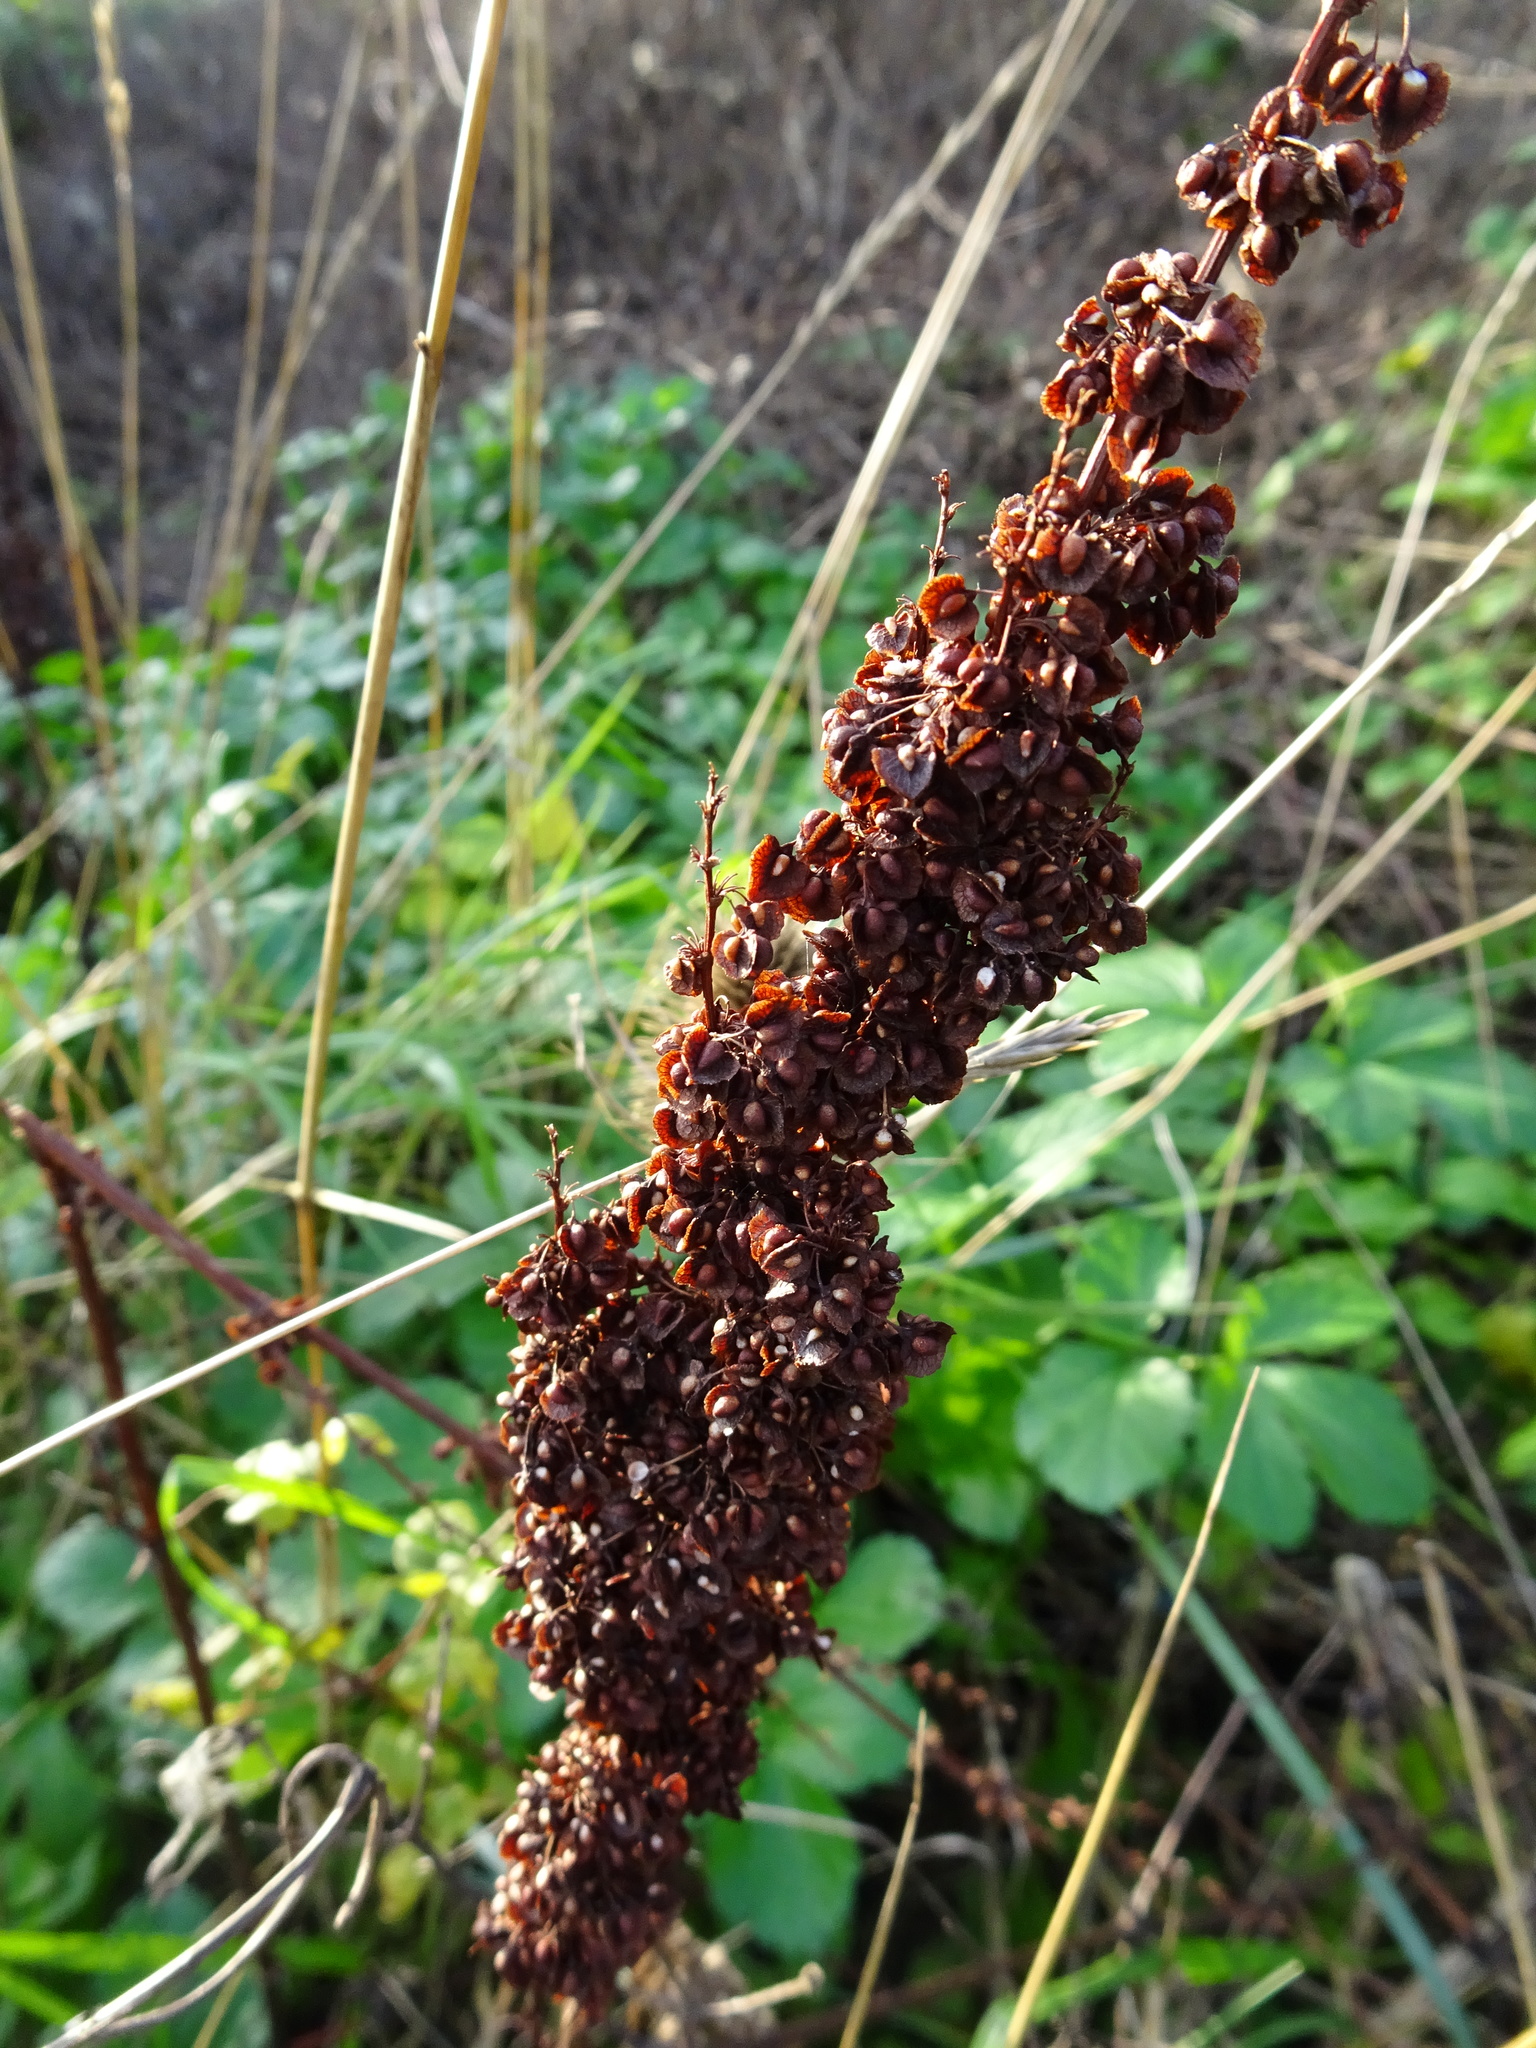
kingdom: Plantae
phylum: Tracheophyta
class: Magnoliopsida
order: Caryophyllales
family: Polygonaceae
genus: Rumex
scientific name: Rumex crispus
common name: Curled dock
